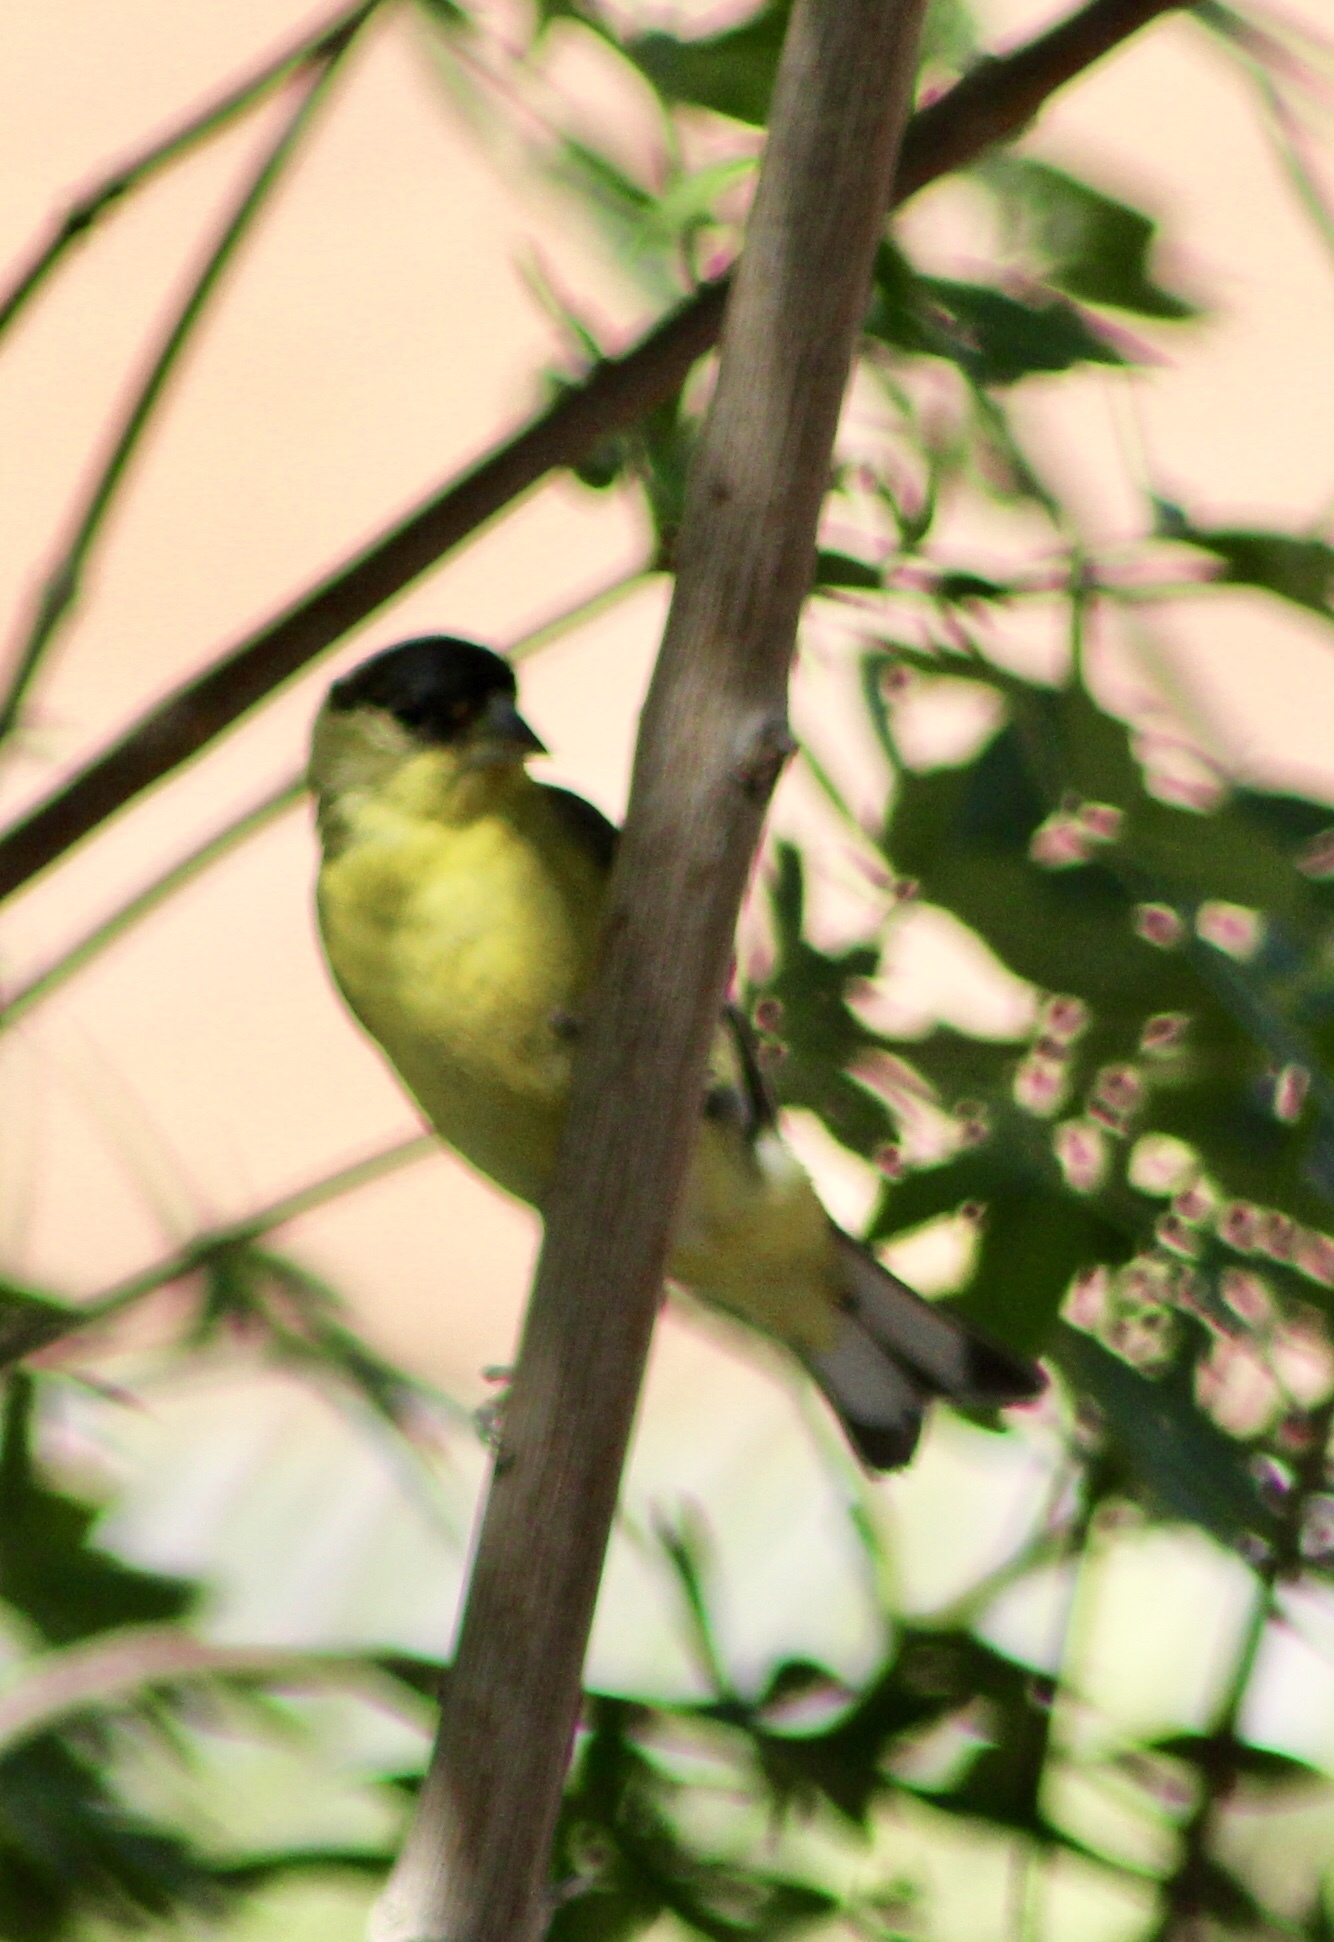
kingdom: Animalia
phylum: Chordata
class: Aves
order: Passeriformes
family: Fringillidae
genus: Spinus
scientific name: Spinus psaltria
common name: Lesser goldfinch
